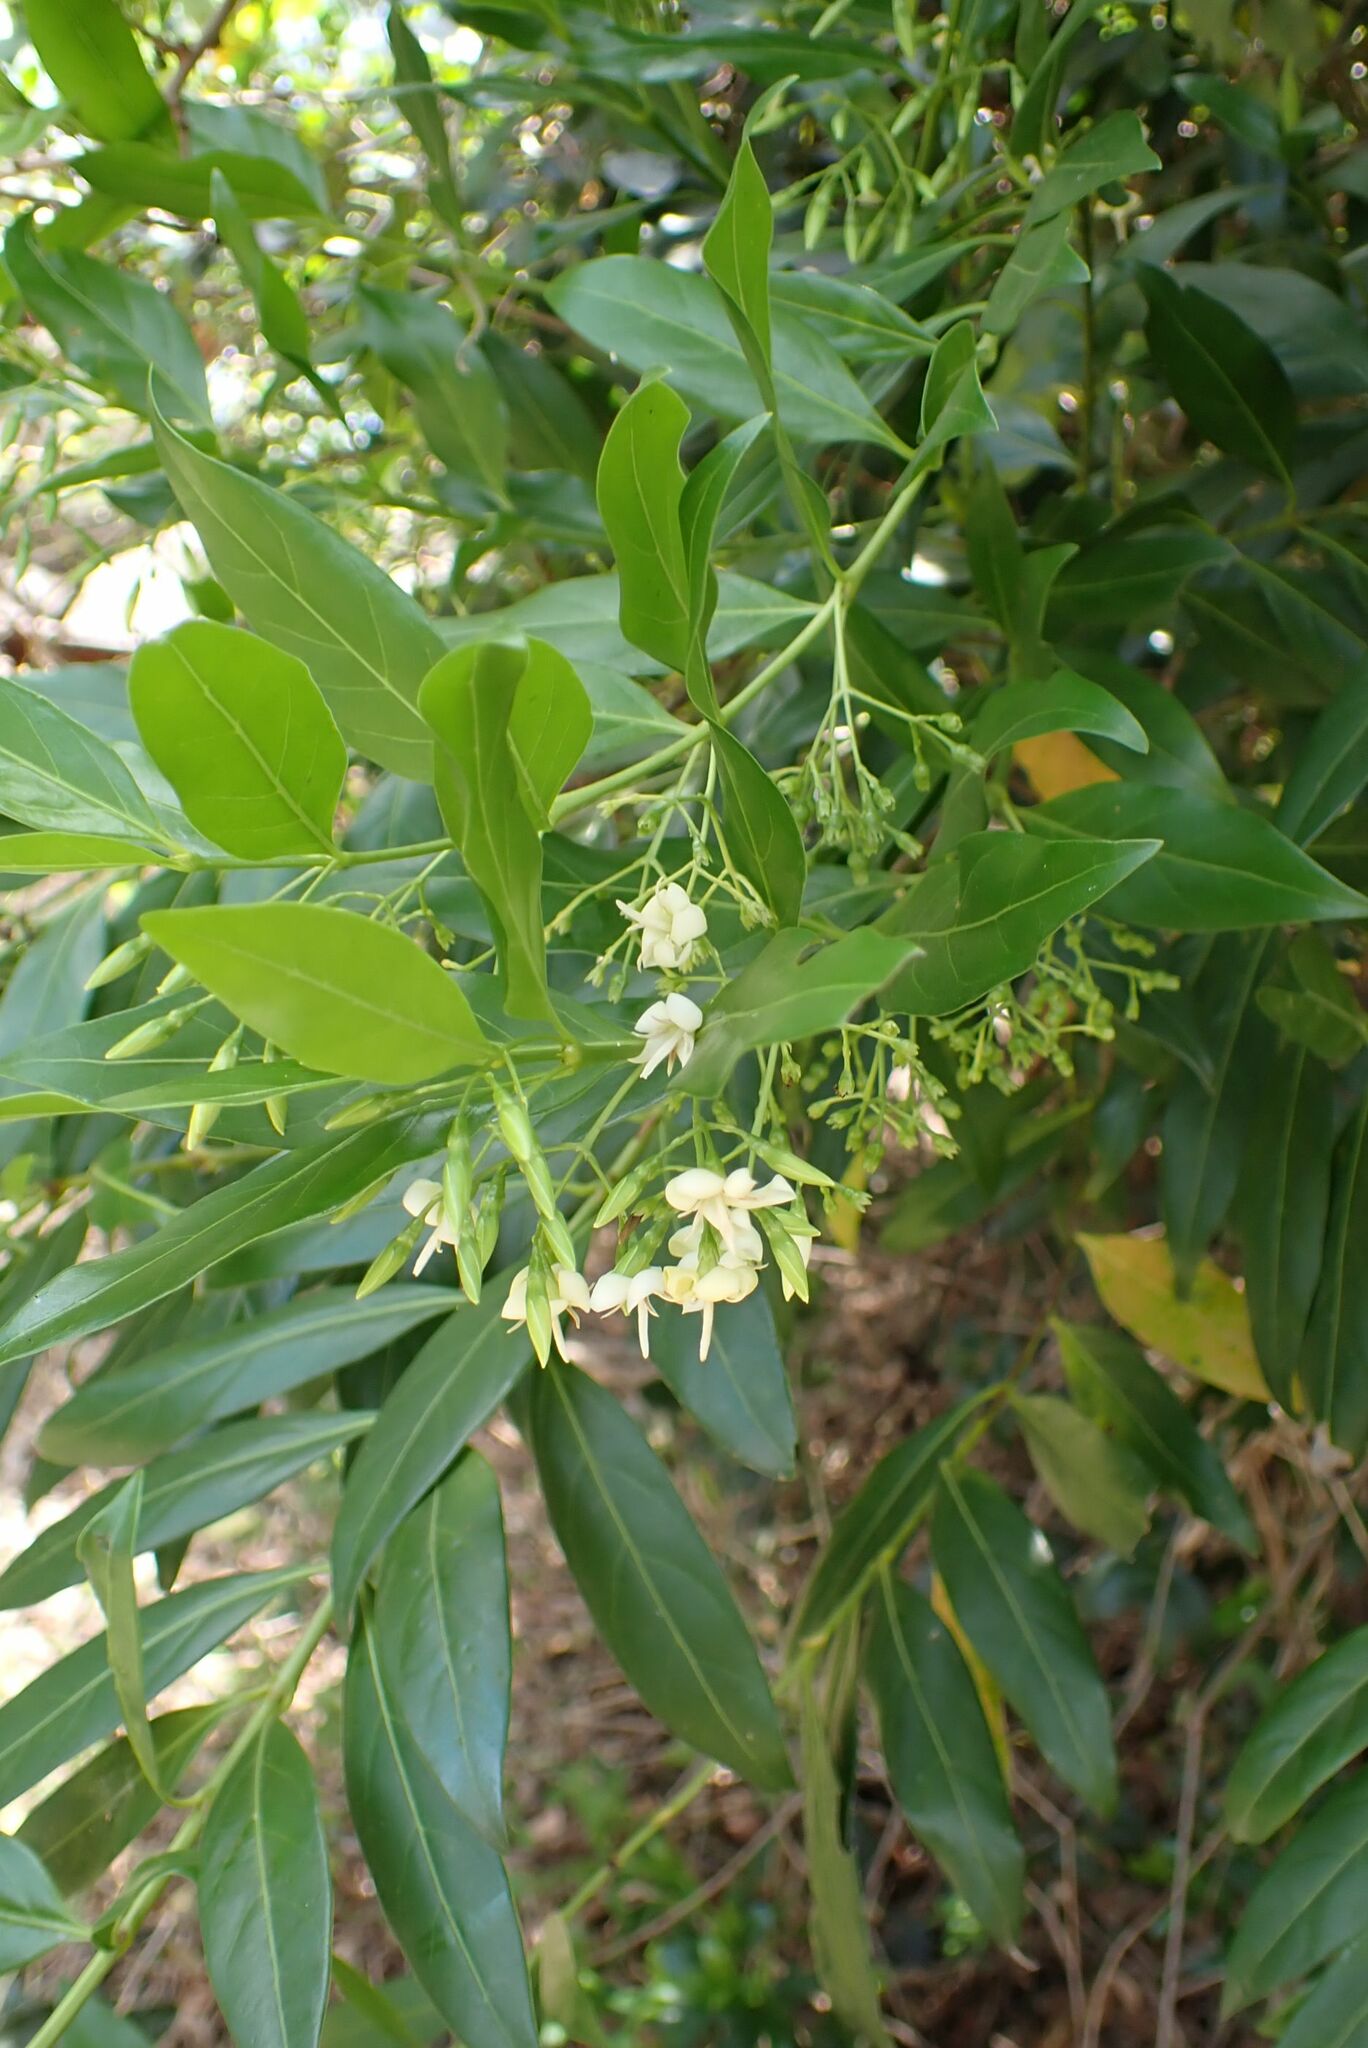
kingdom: Plantae
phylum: Tracheophyta
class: Magnoliopsida
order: Gentianales
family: Rubiaceae
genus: Kraussia
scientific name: Kraussia floribunda
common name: Rhino-coffee
